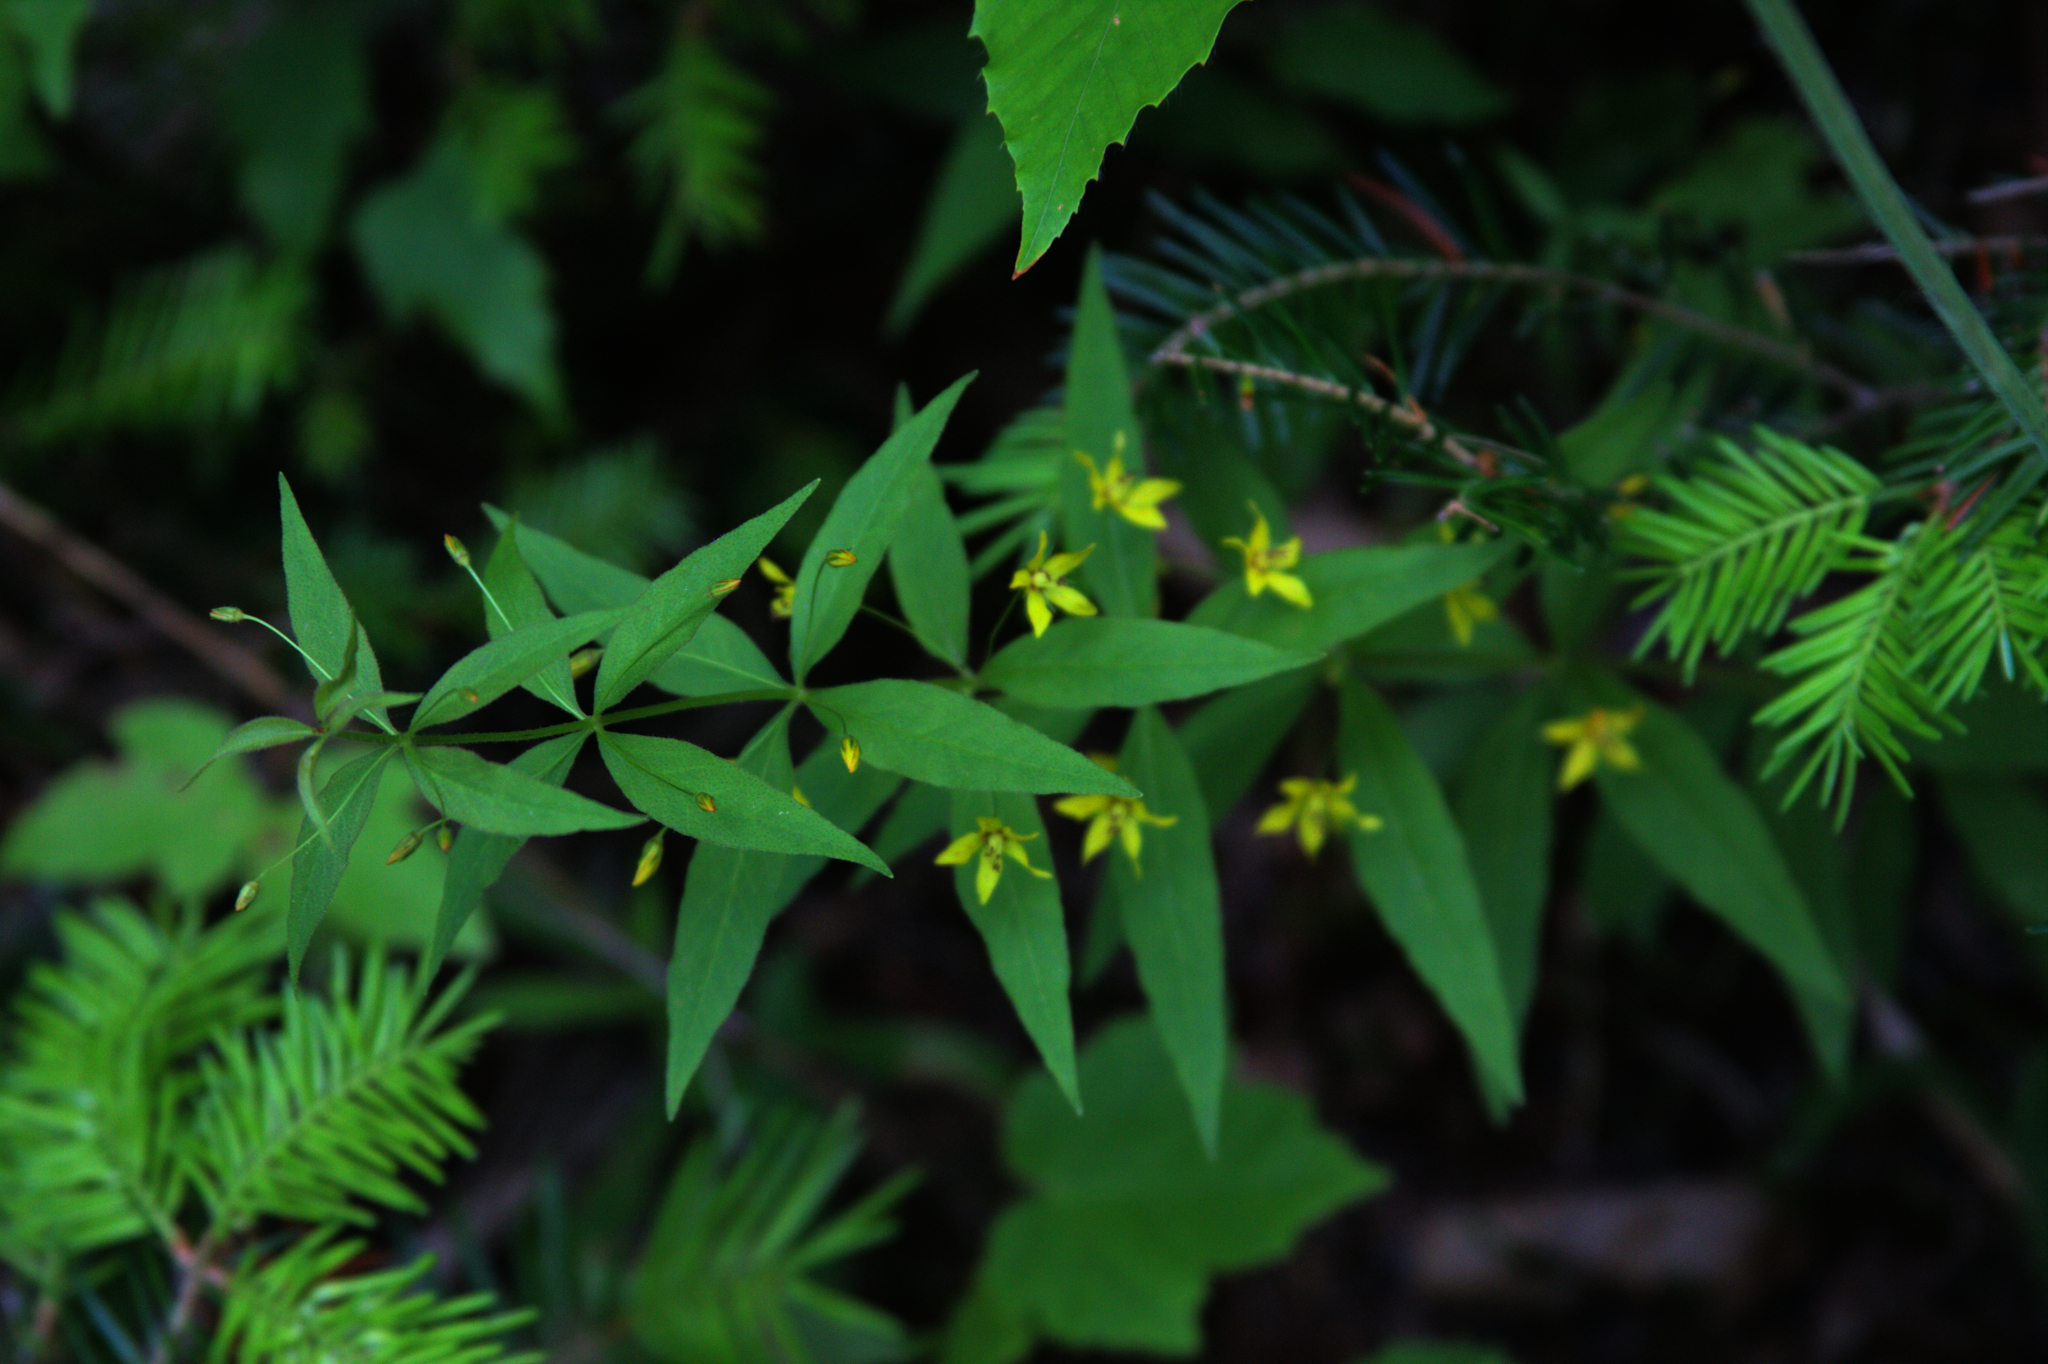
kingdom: Plantae
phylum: Tracheophyta
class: Magnoliopsida
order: Ericales
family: Primulaceae
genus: Lysimachia
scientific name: Lysimachia quadrifolia
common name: Whorled loosestrife
